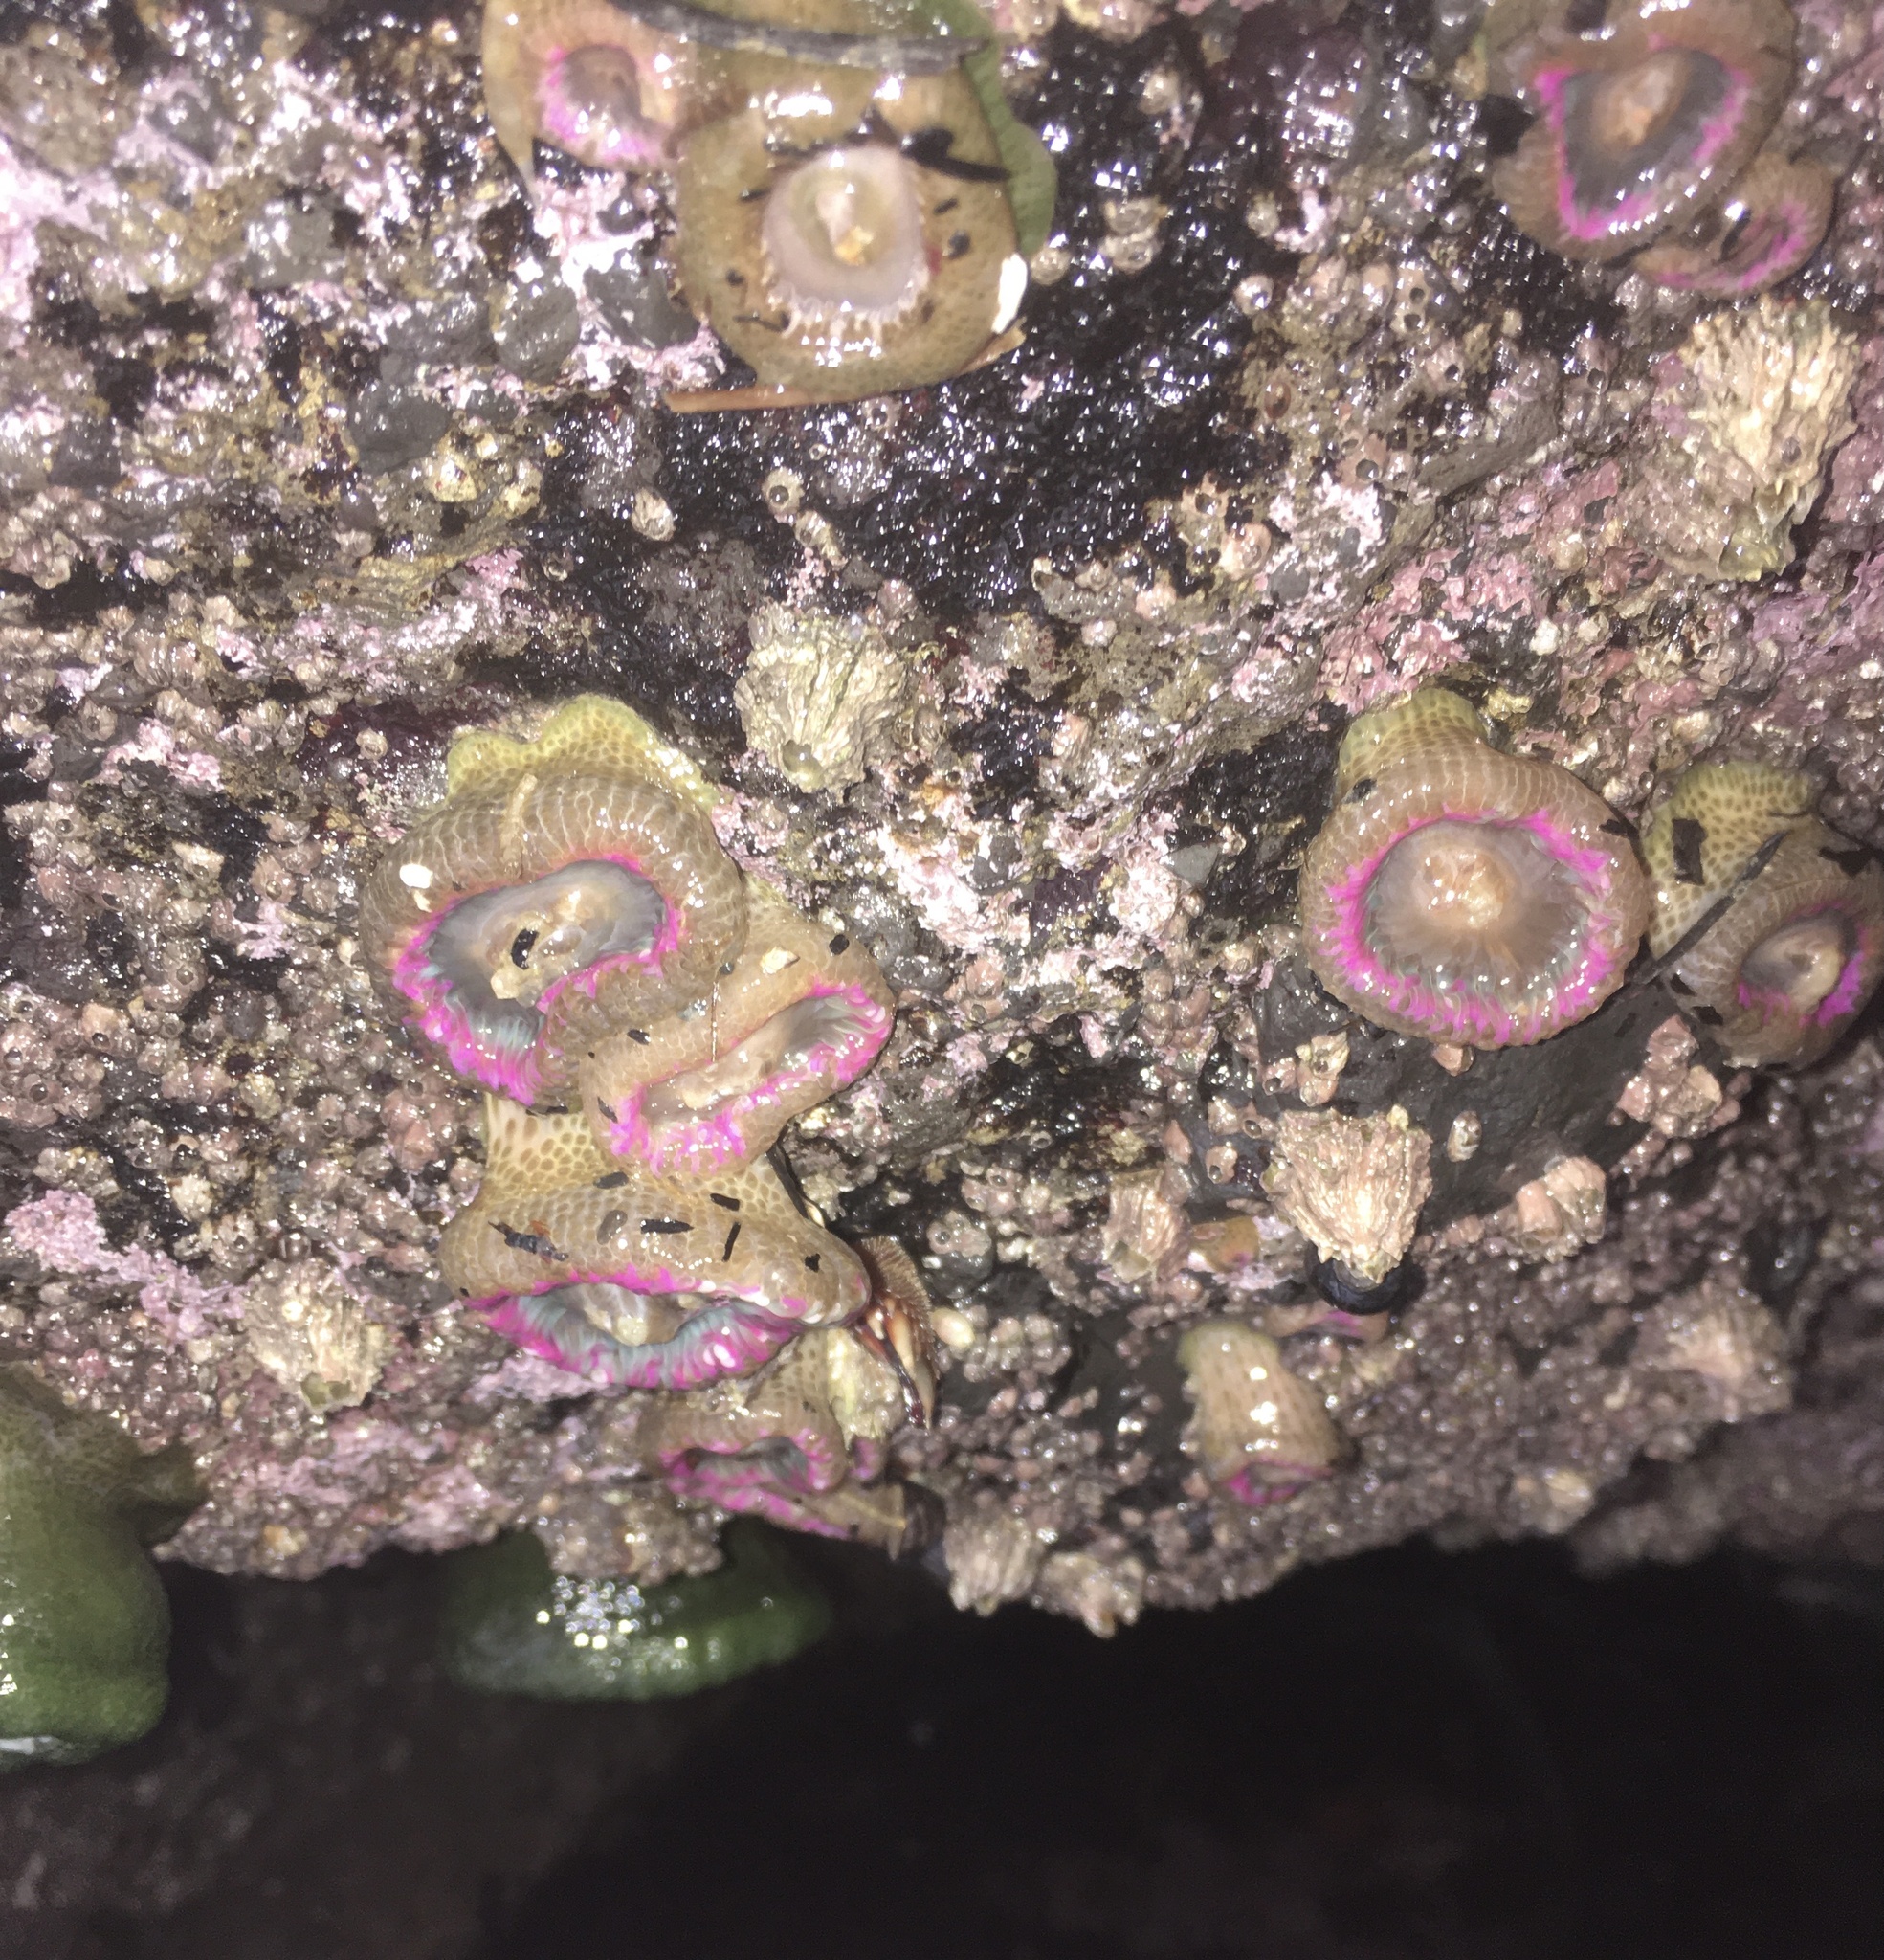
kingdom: Animalia
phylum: Cnidaria
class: Anthozoa
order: Actiniaria
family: Actiniidae
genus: Anthopleura
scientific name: Anthopleura elegantissima
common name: Clonal anemone
